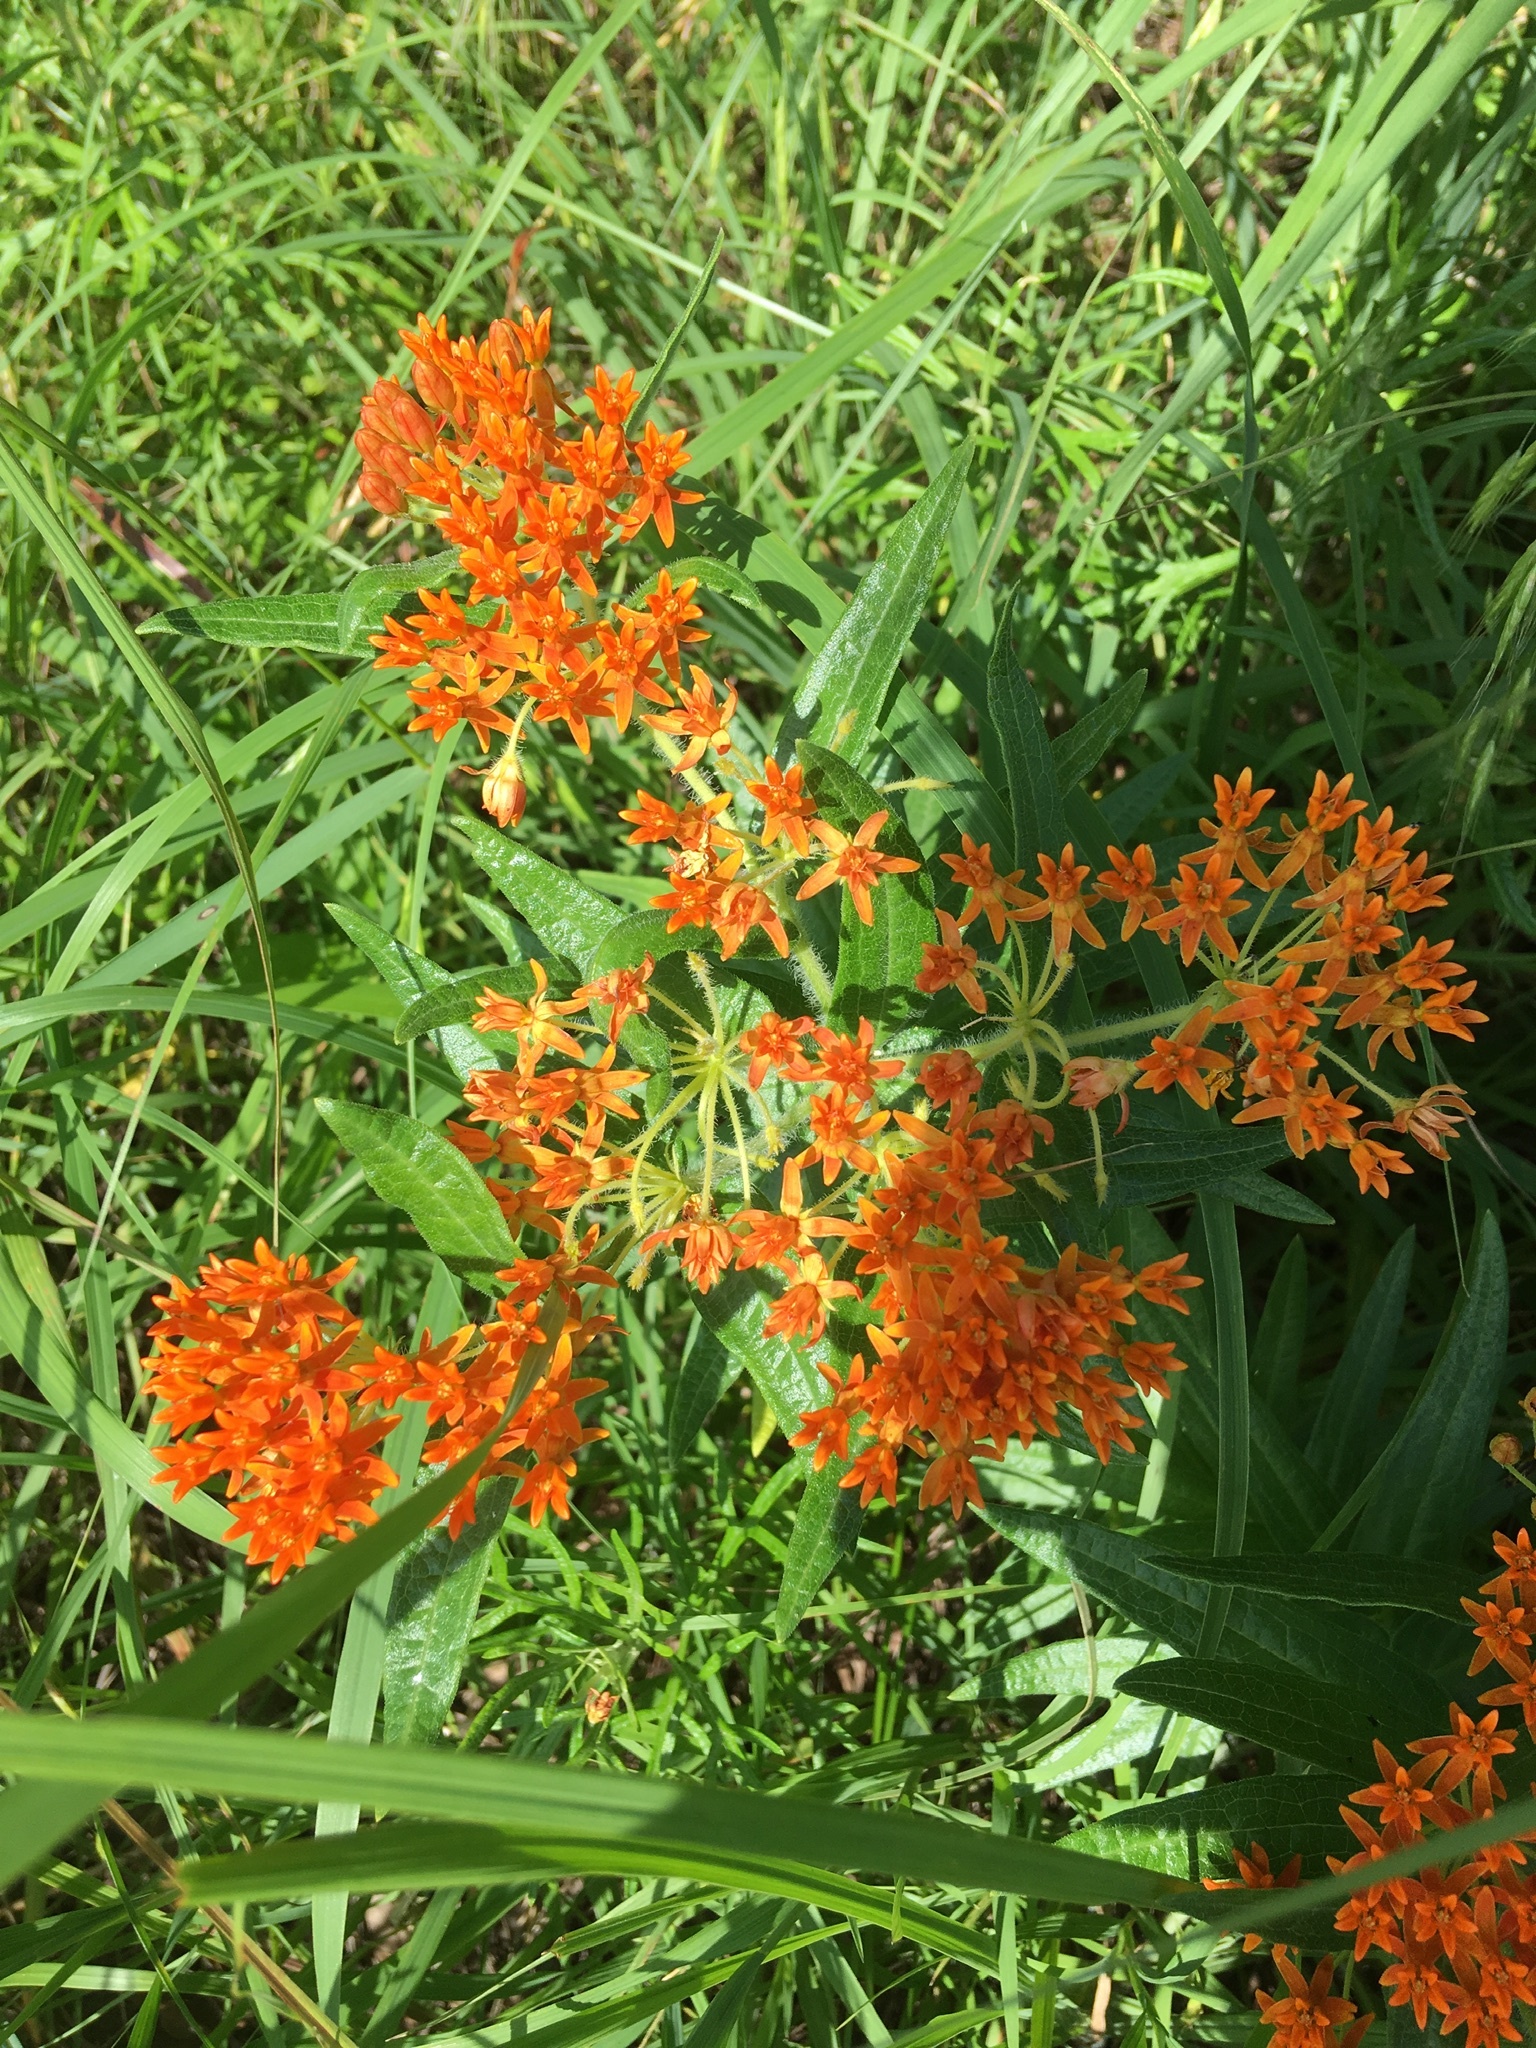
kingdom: Plantae
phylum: Tracheophyta
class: Magnoliopsida
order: Gentianales
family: Apocynaceae
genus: Asclepias
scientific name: Asclepias tuberosa
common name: Butterfly milkweed
